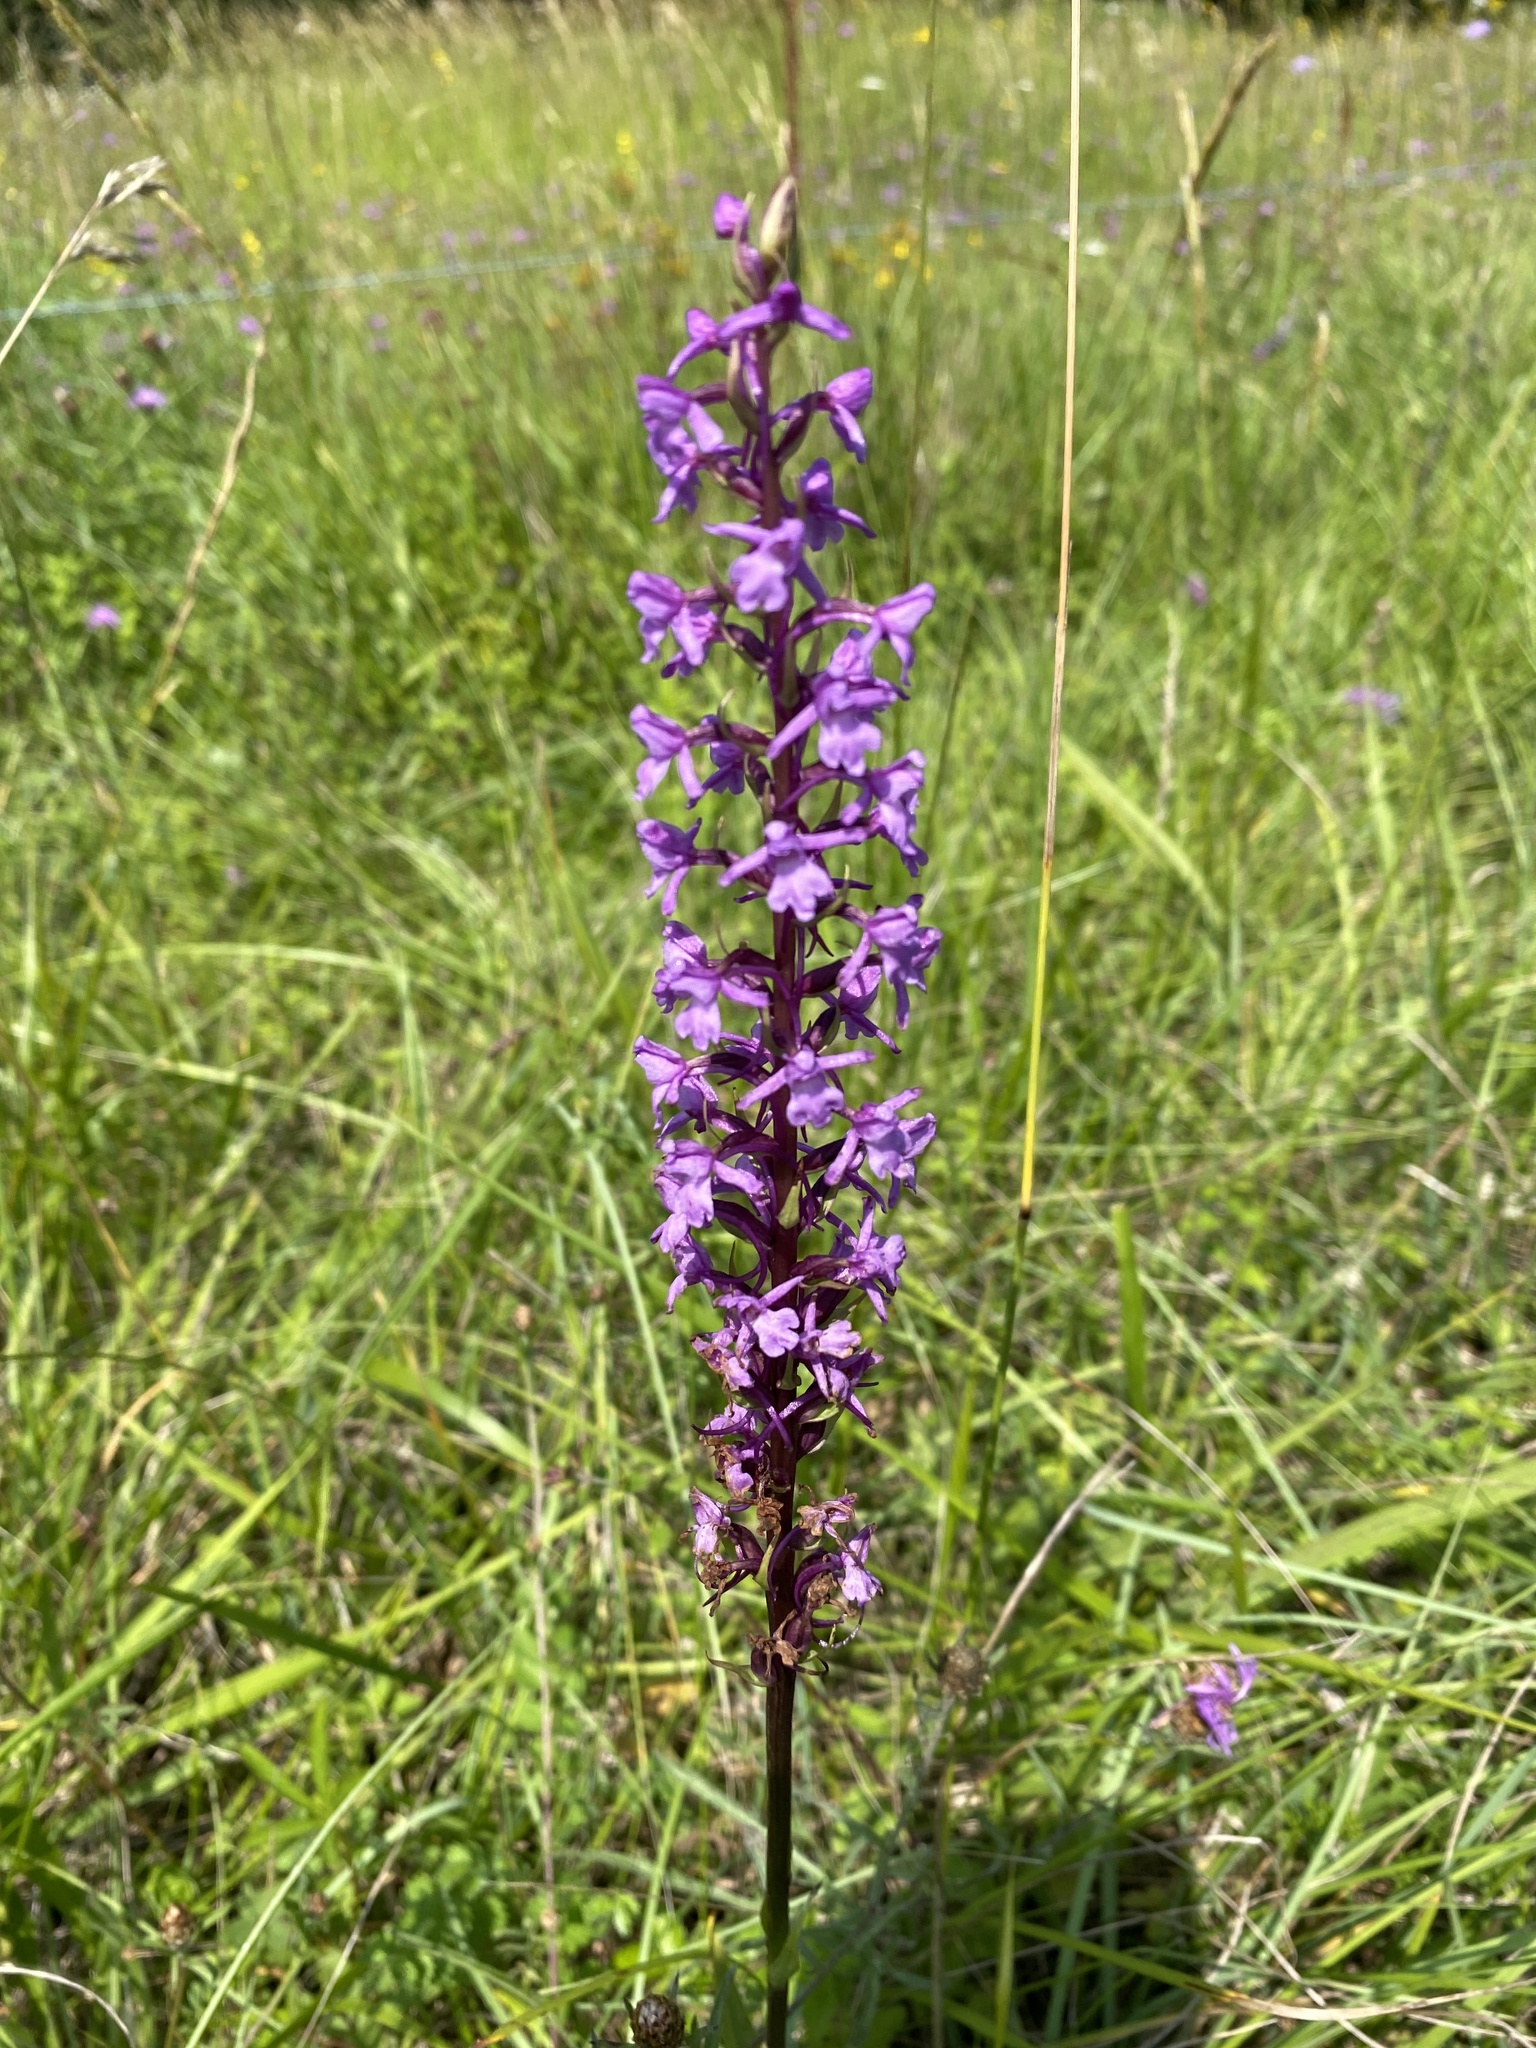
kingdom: Plantae
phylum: Tracheophyta
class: Liliopsida
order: Asparagales
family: Orchidaceae
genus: Gymnadenia
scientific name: Gymnadenia conopsea
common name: Fragrant orchid
